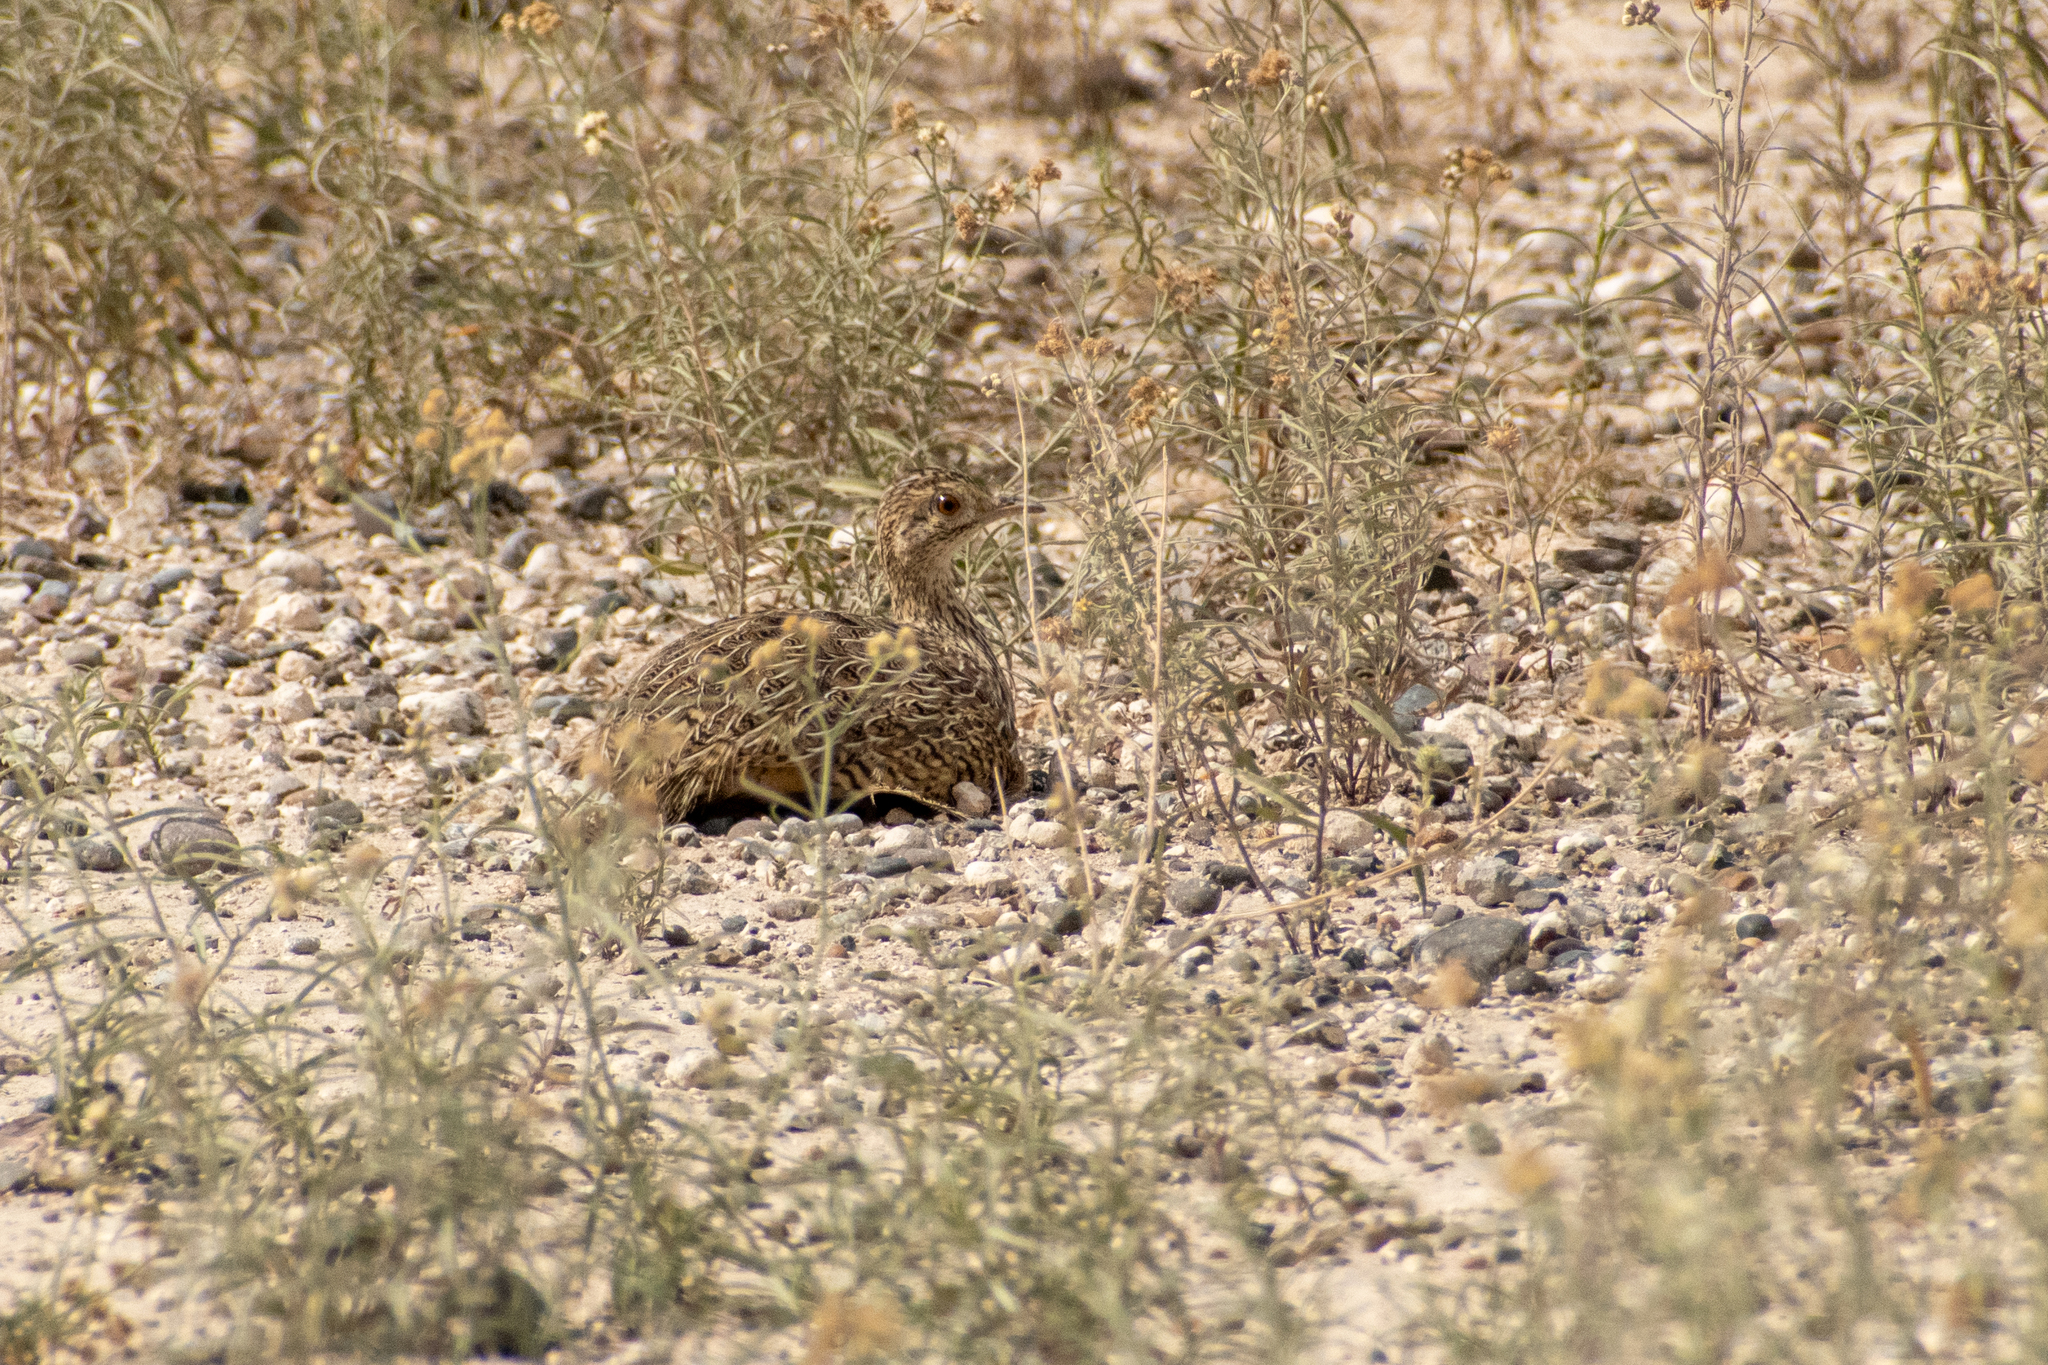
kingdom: Animalia
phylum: Chordata
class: Aves
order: Tinamiformes
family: Tinamidae
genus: Nothura
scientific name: Nothura darwinii
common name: Darwin's nothura
